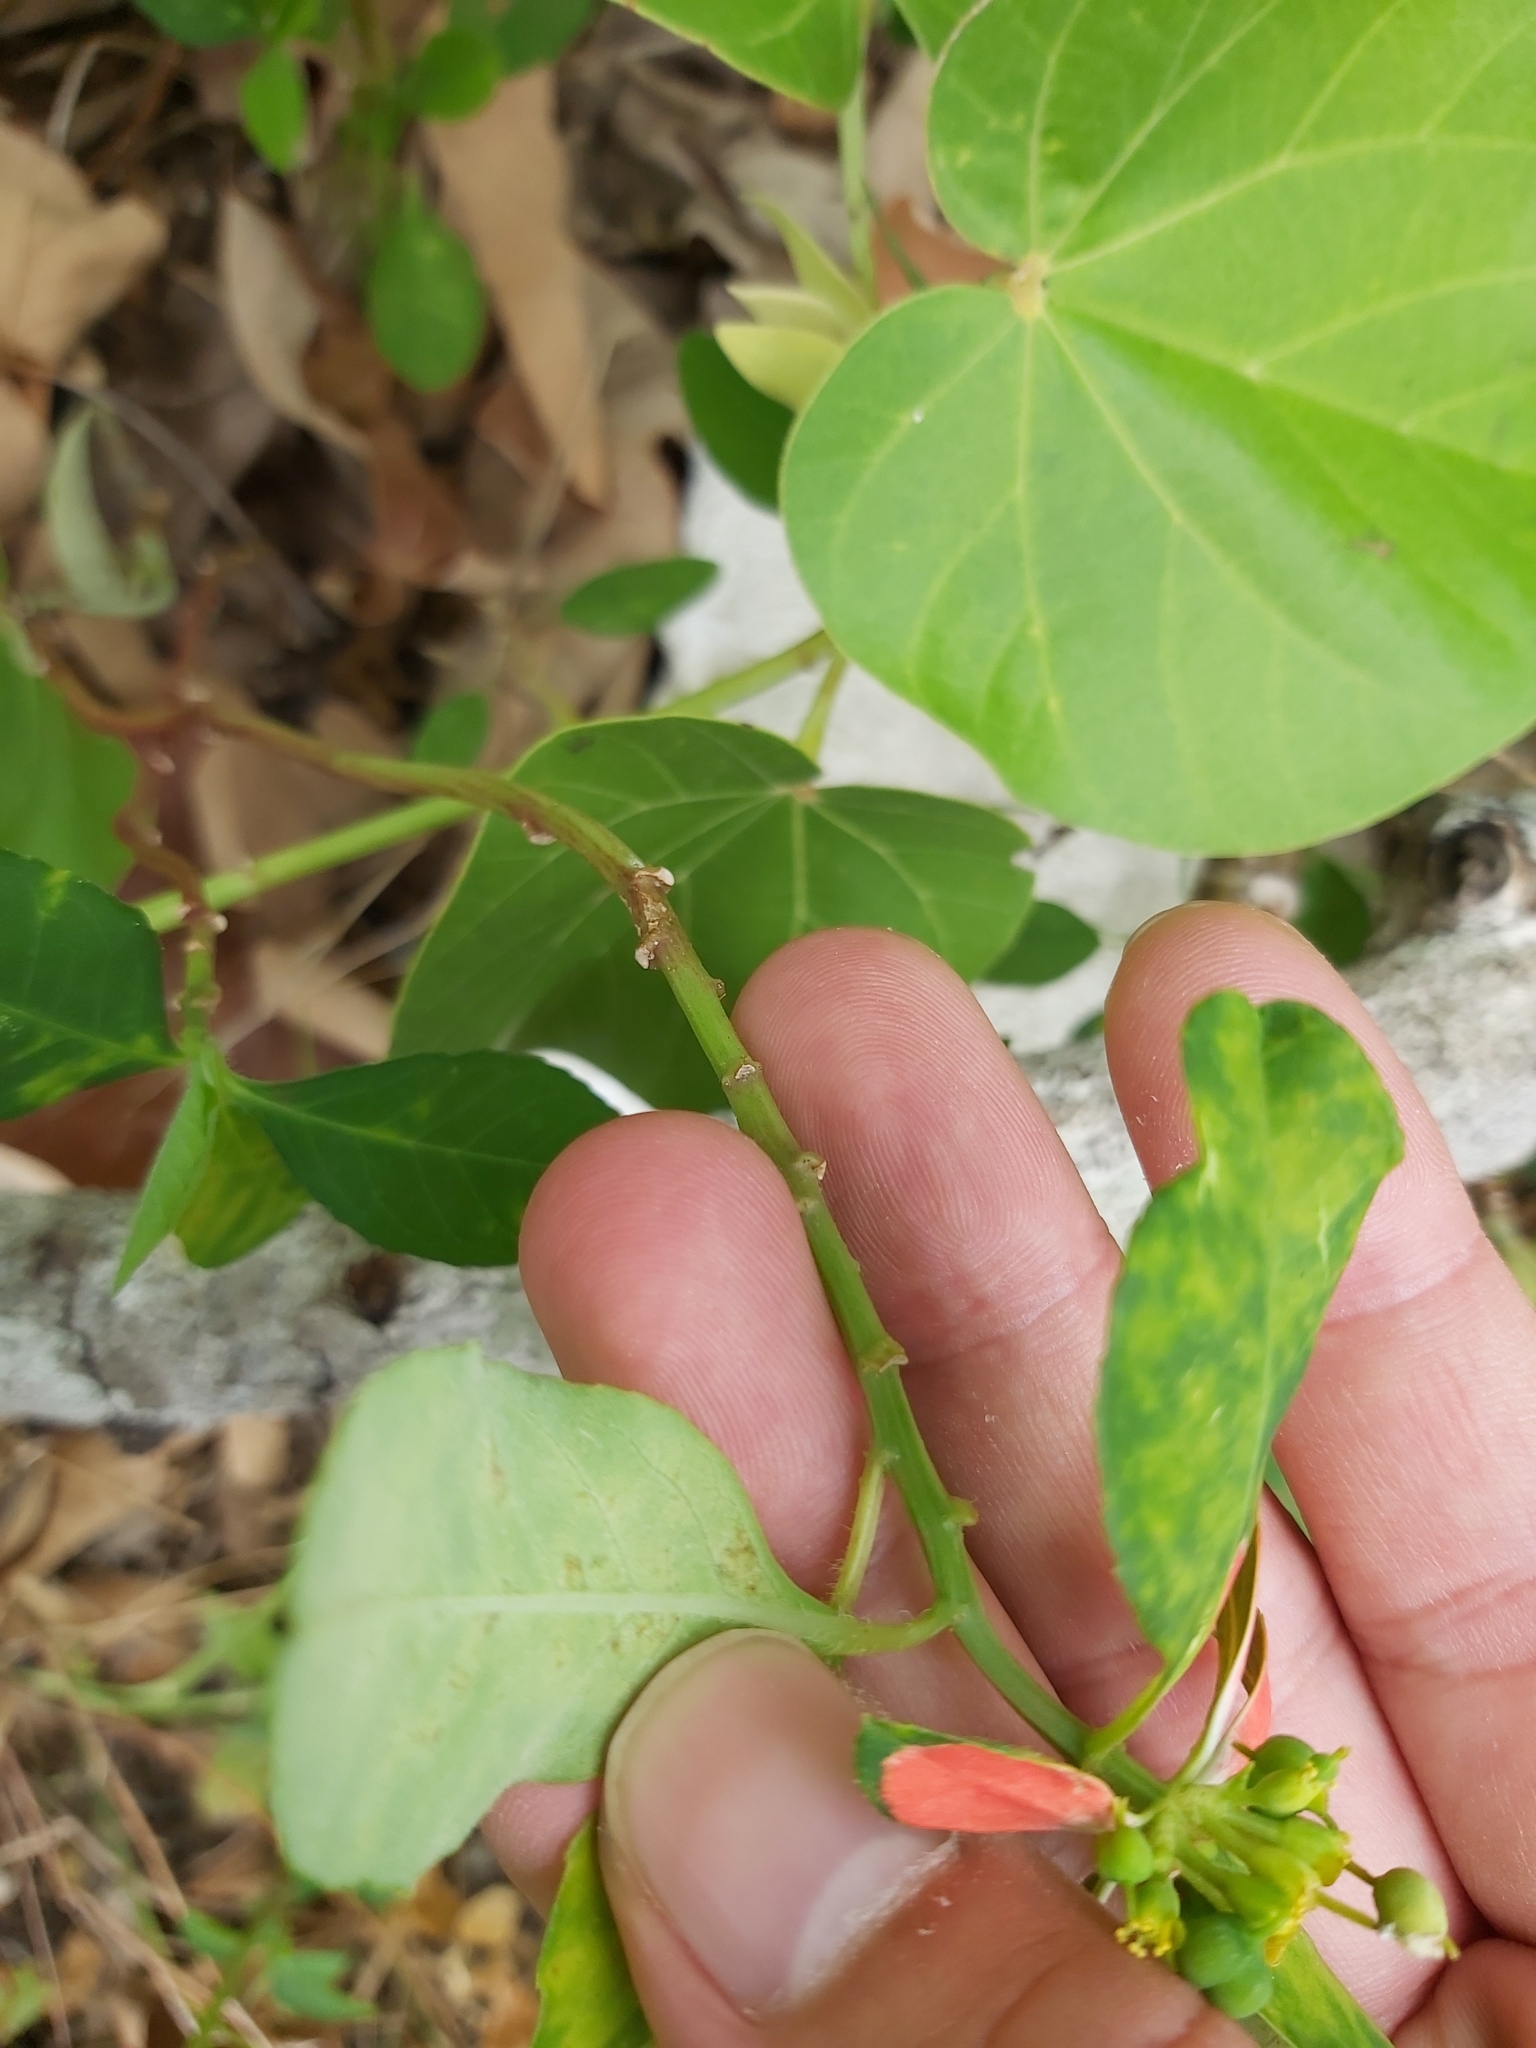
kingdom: Plantae
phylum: Tracheophyta
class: Magnoliopsida
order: Malpighiales
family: Euphorbiaceae
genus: Euphorbia
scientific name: Euphorbia heterophylla
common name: Mexican fireplant
